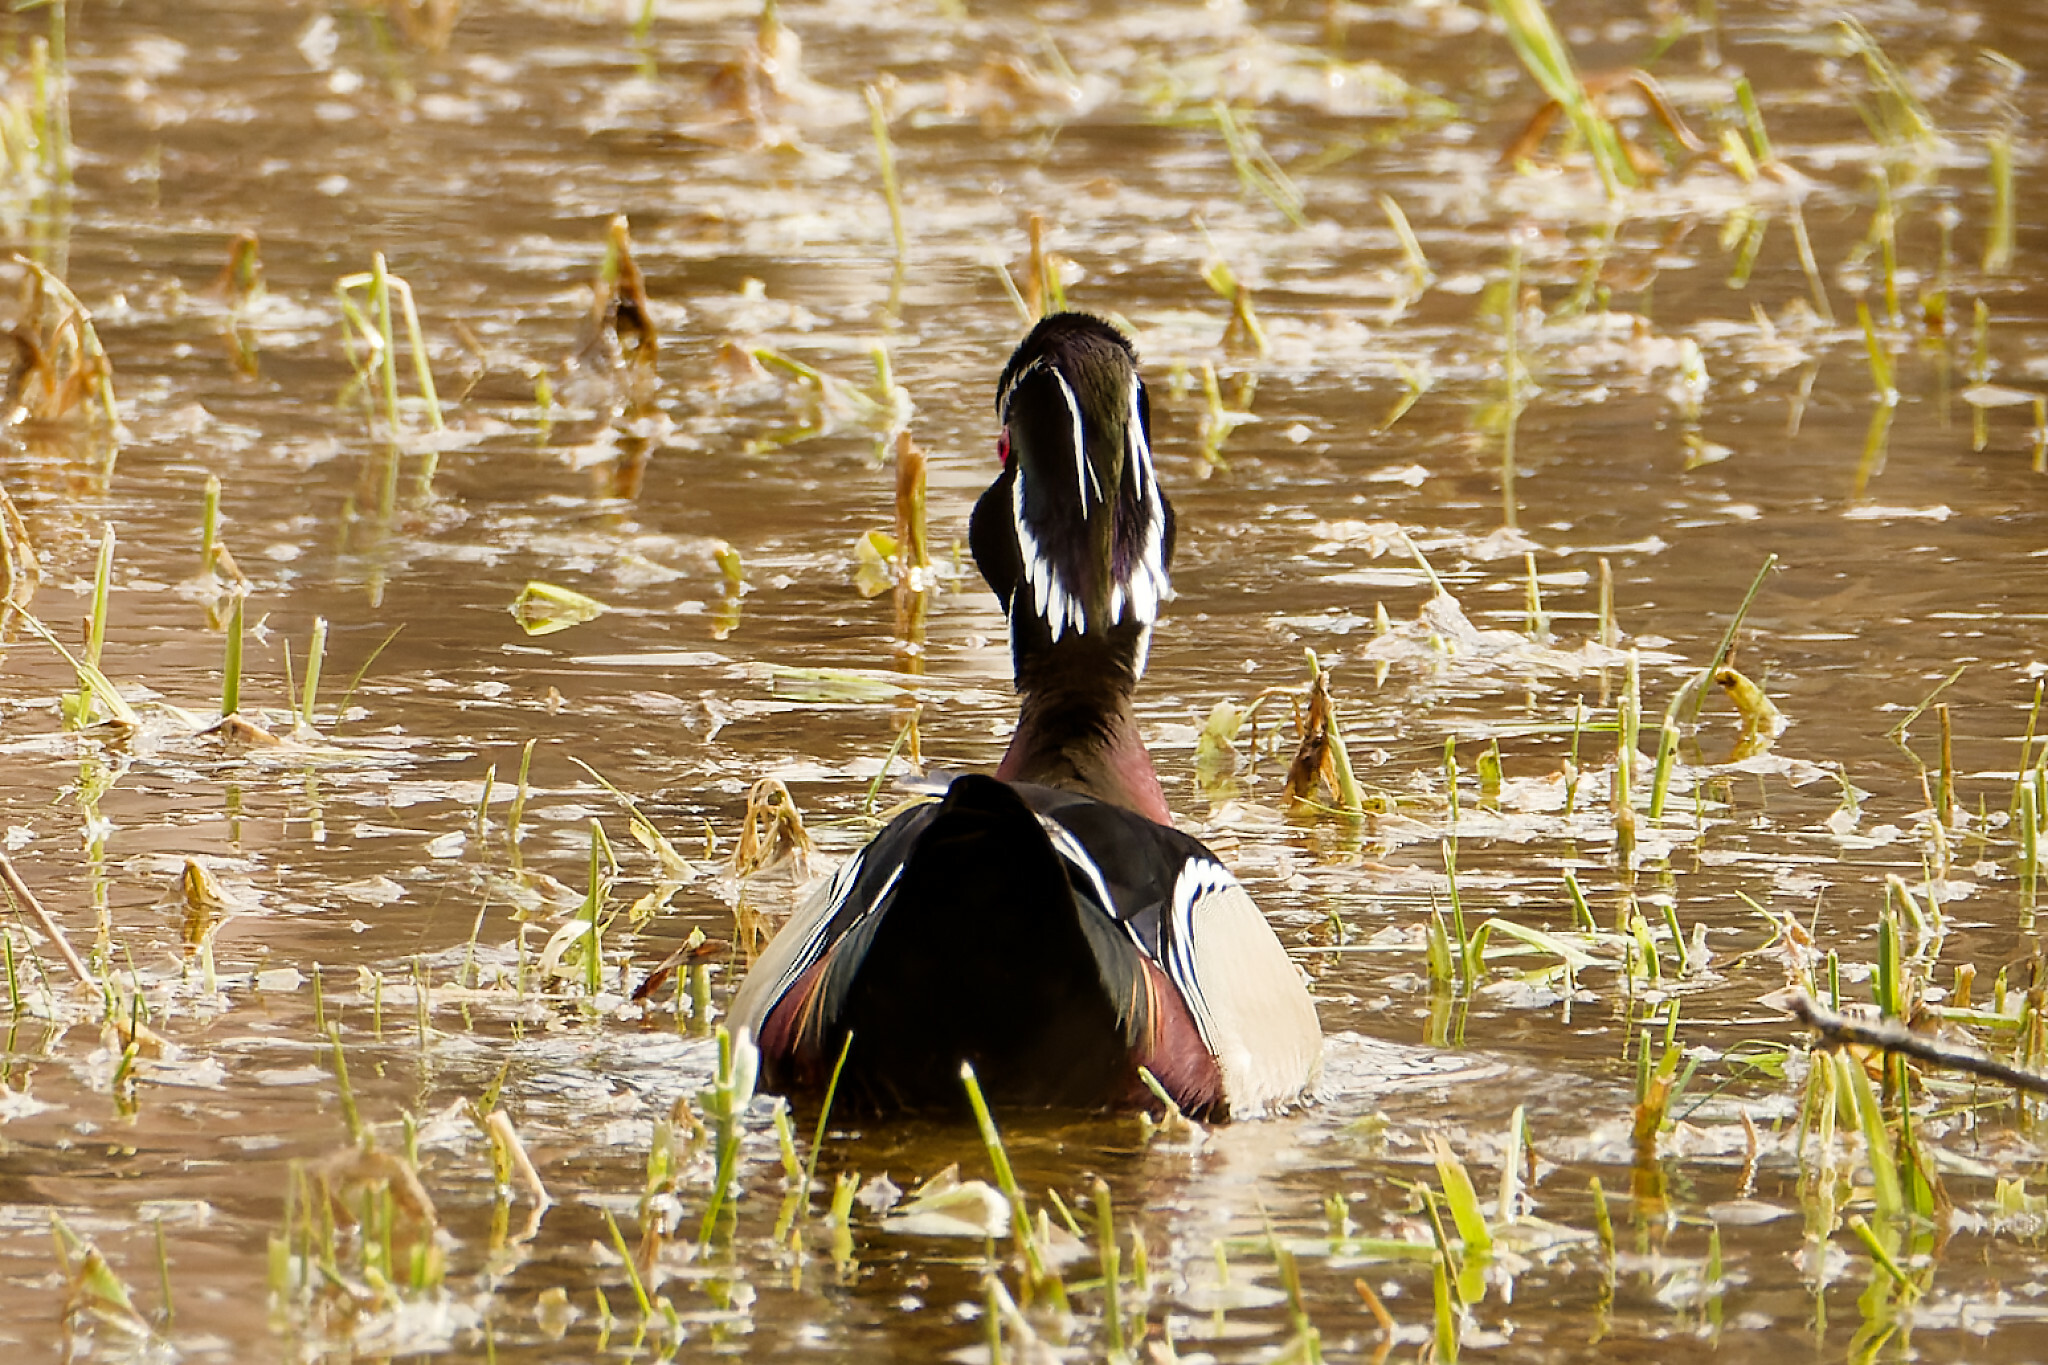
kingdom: Animalia
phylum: Chordata
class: Aves
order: Anseriformes
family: Anatidae
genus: Aix
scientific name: Aix sponsa
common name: Wood duck
